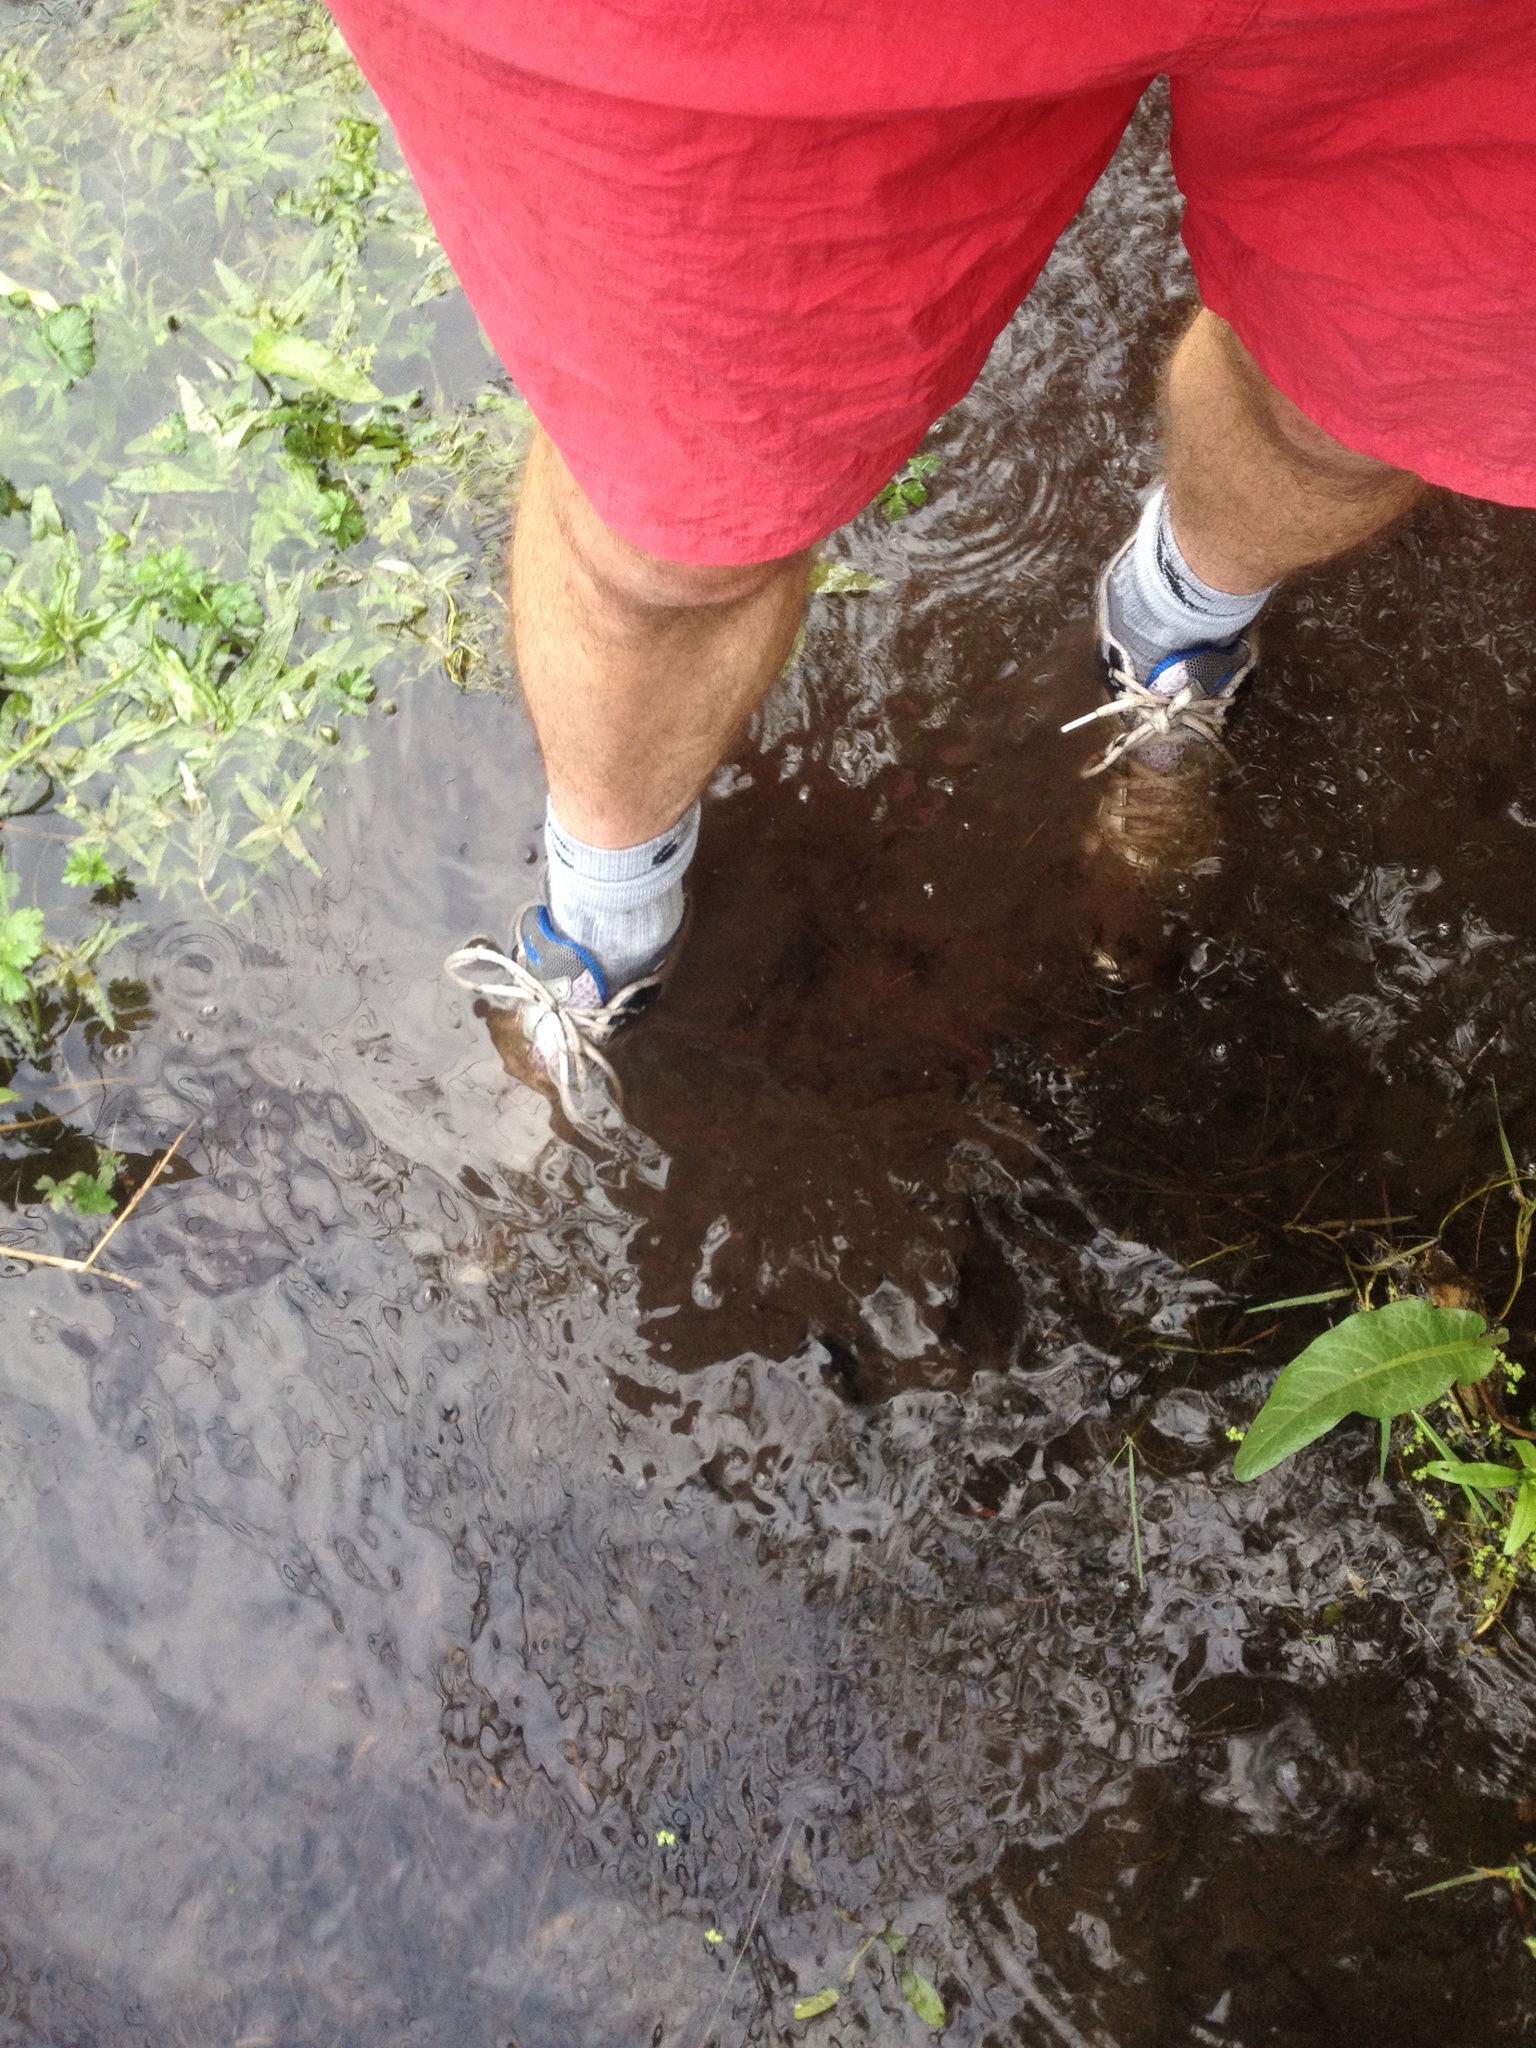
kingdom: Plantae
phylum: Tracheophyta
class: Liliopsida
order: Poales
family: Cyperaceae
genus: Carex
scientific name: Carex secta
